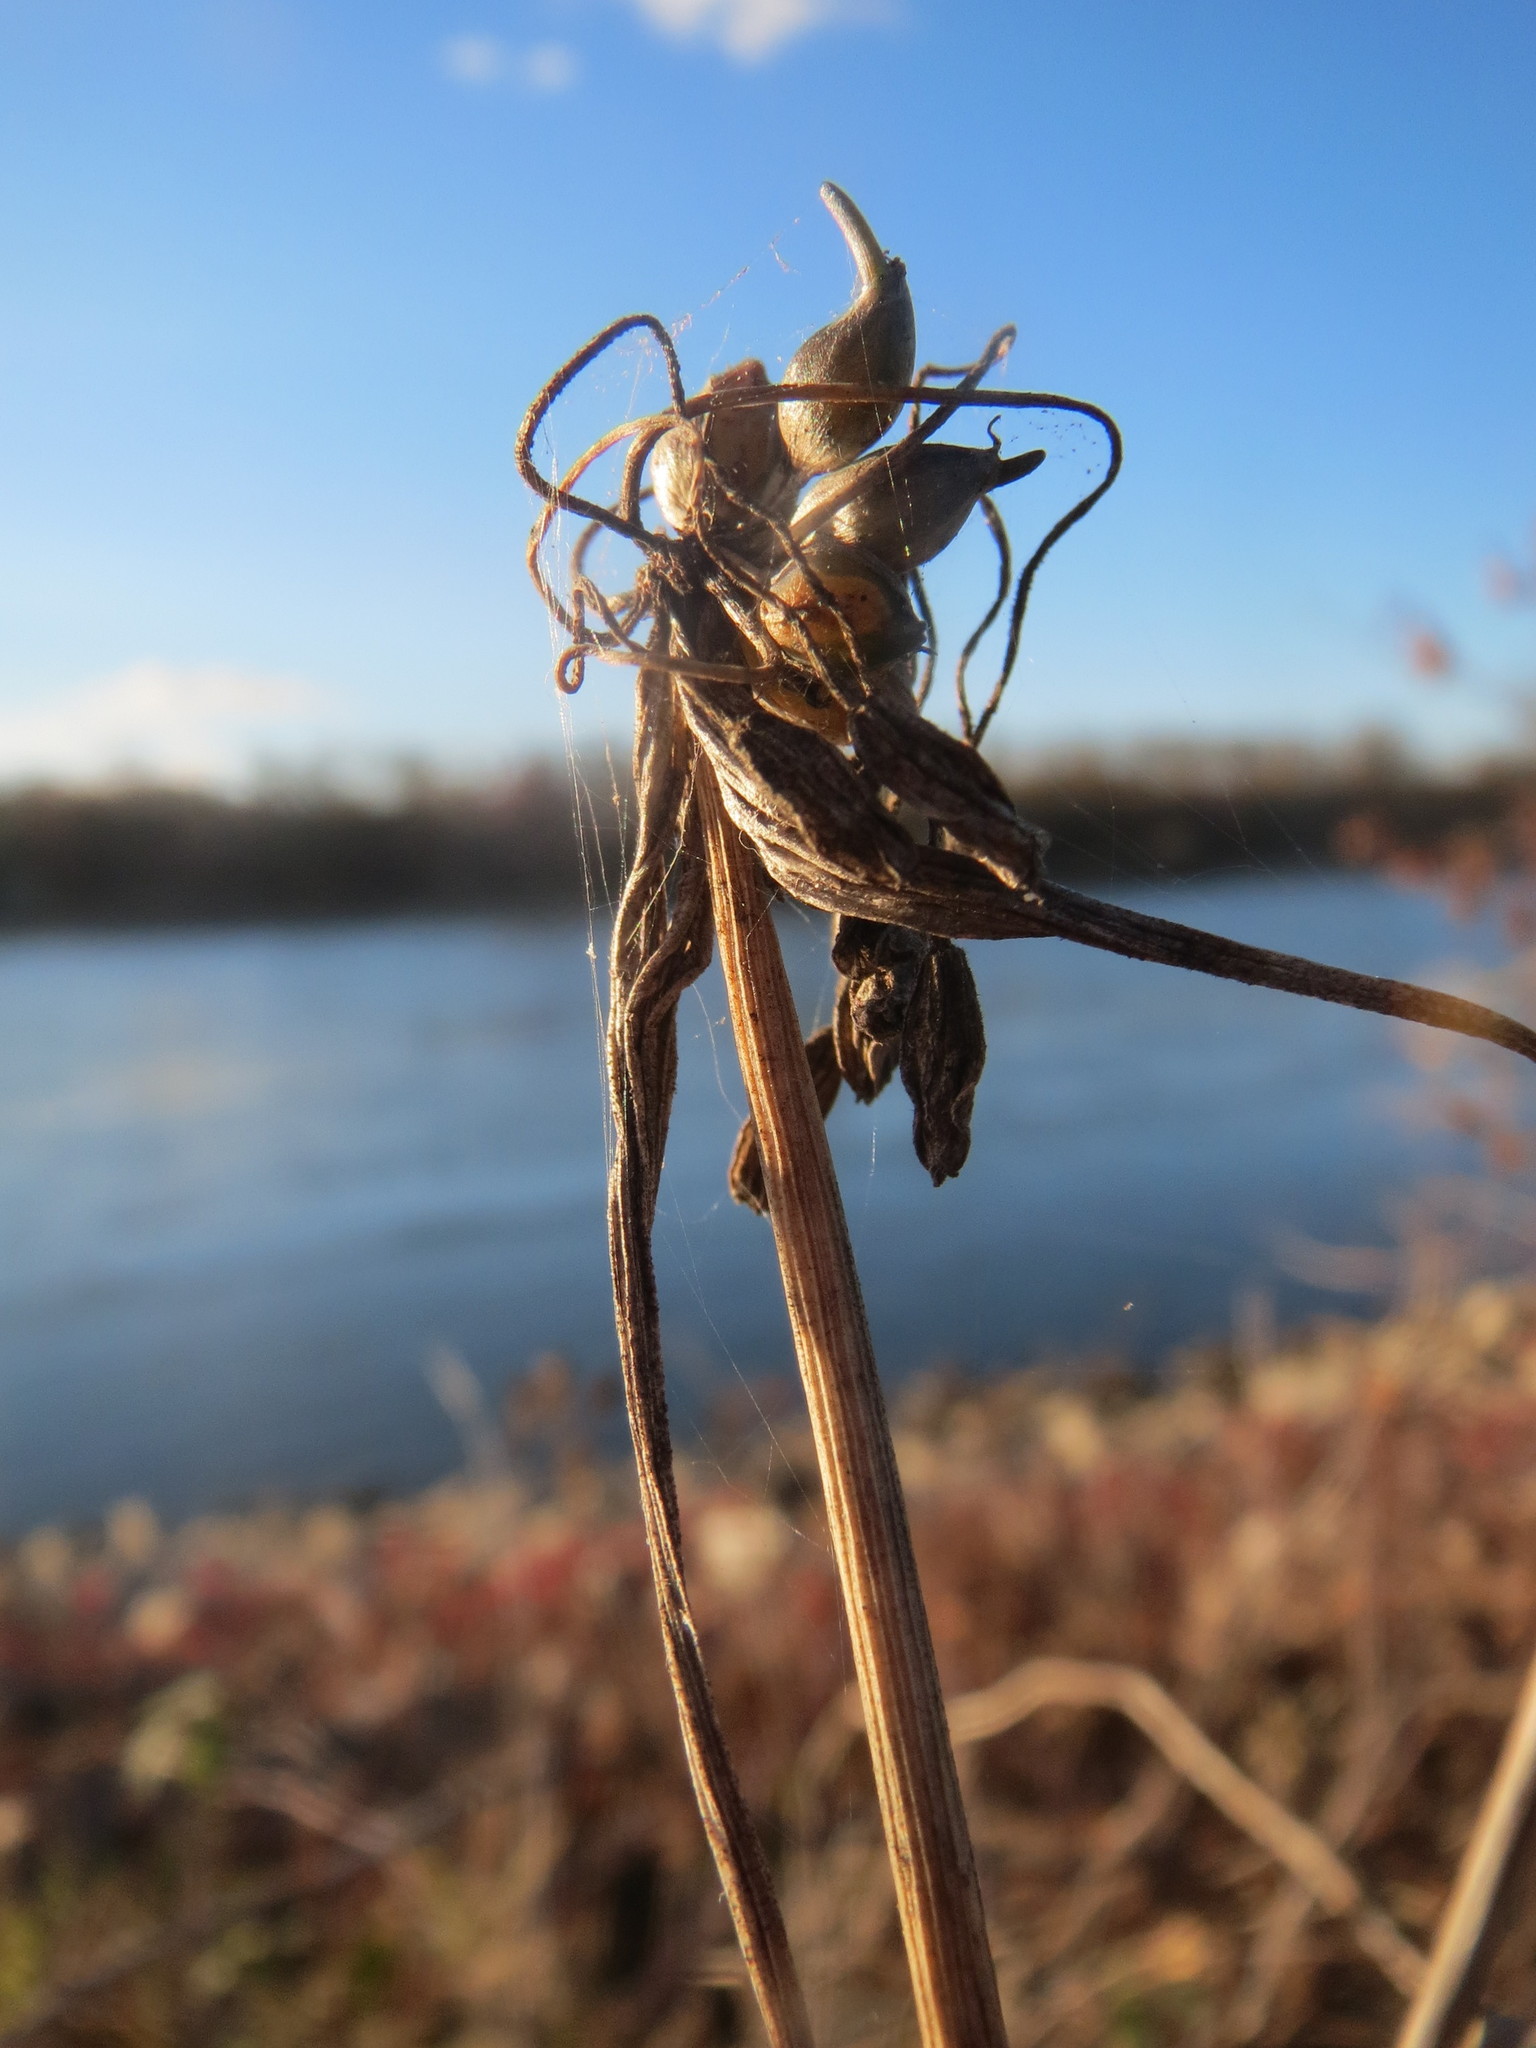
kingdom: Plantae
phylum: Tracheophyta
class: Liliopsida
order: Asparagales
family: Amaryllidaceae
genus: Allium
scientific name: Allium oleraceum
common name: Field garlic
